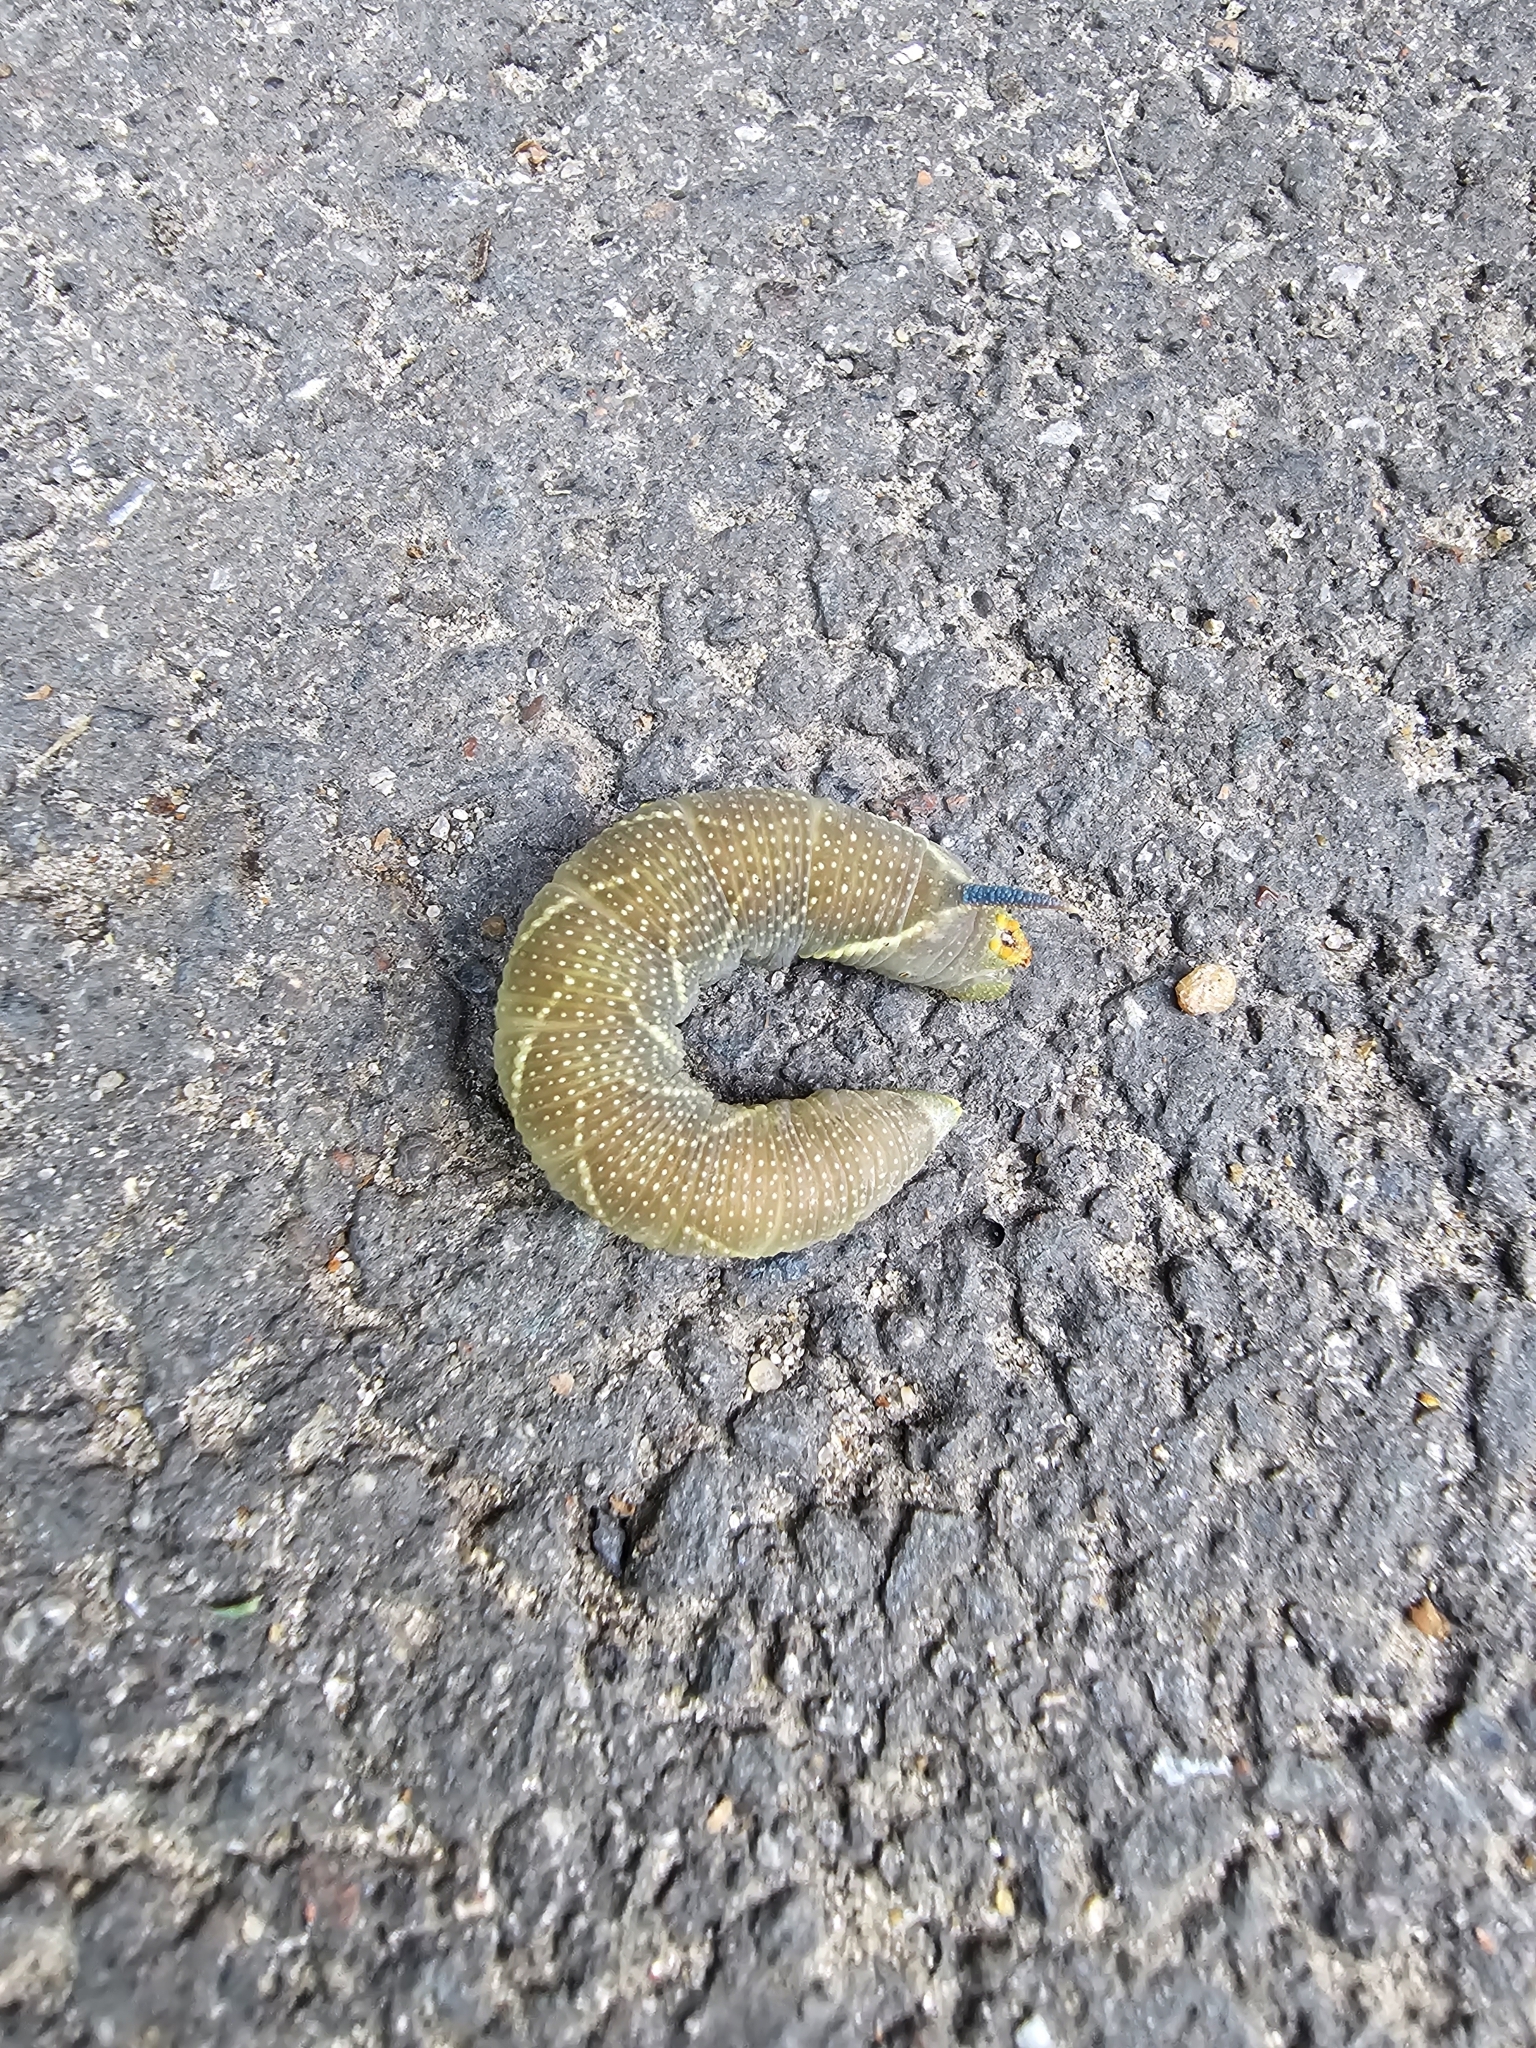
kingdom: Animalia
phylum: Arthropoda
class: Insecta
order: Lepidoptera
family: Sphingidae
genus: Mimas
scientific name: Mimas tiliae
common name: Lime hawk-moth
